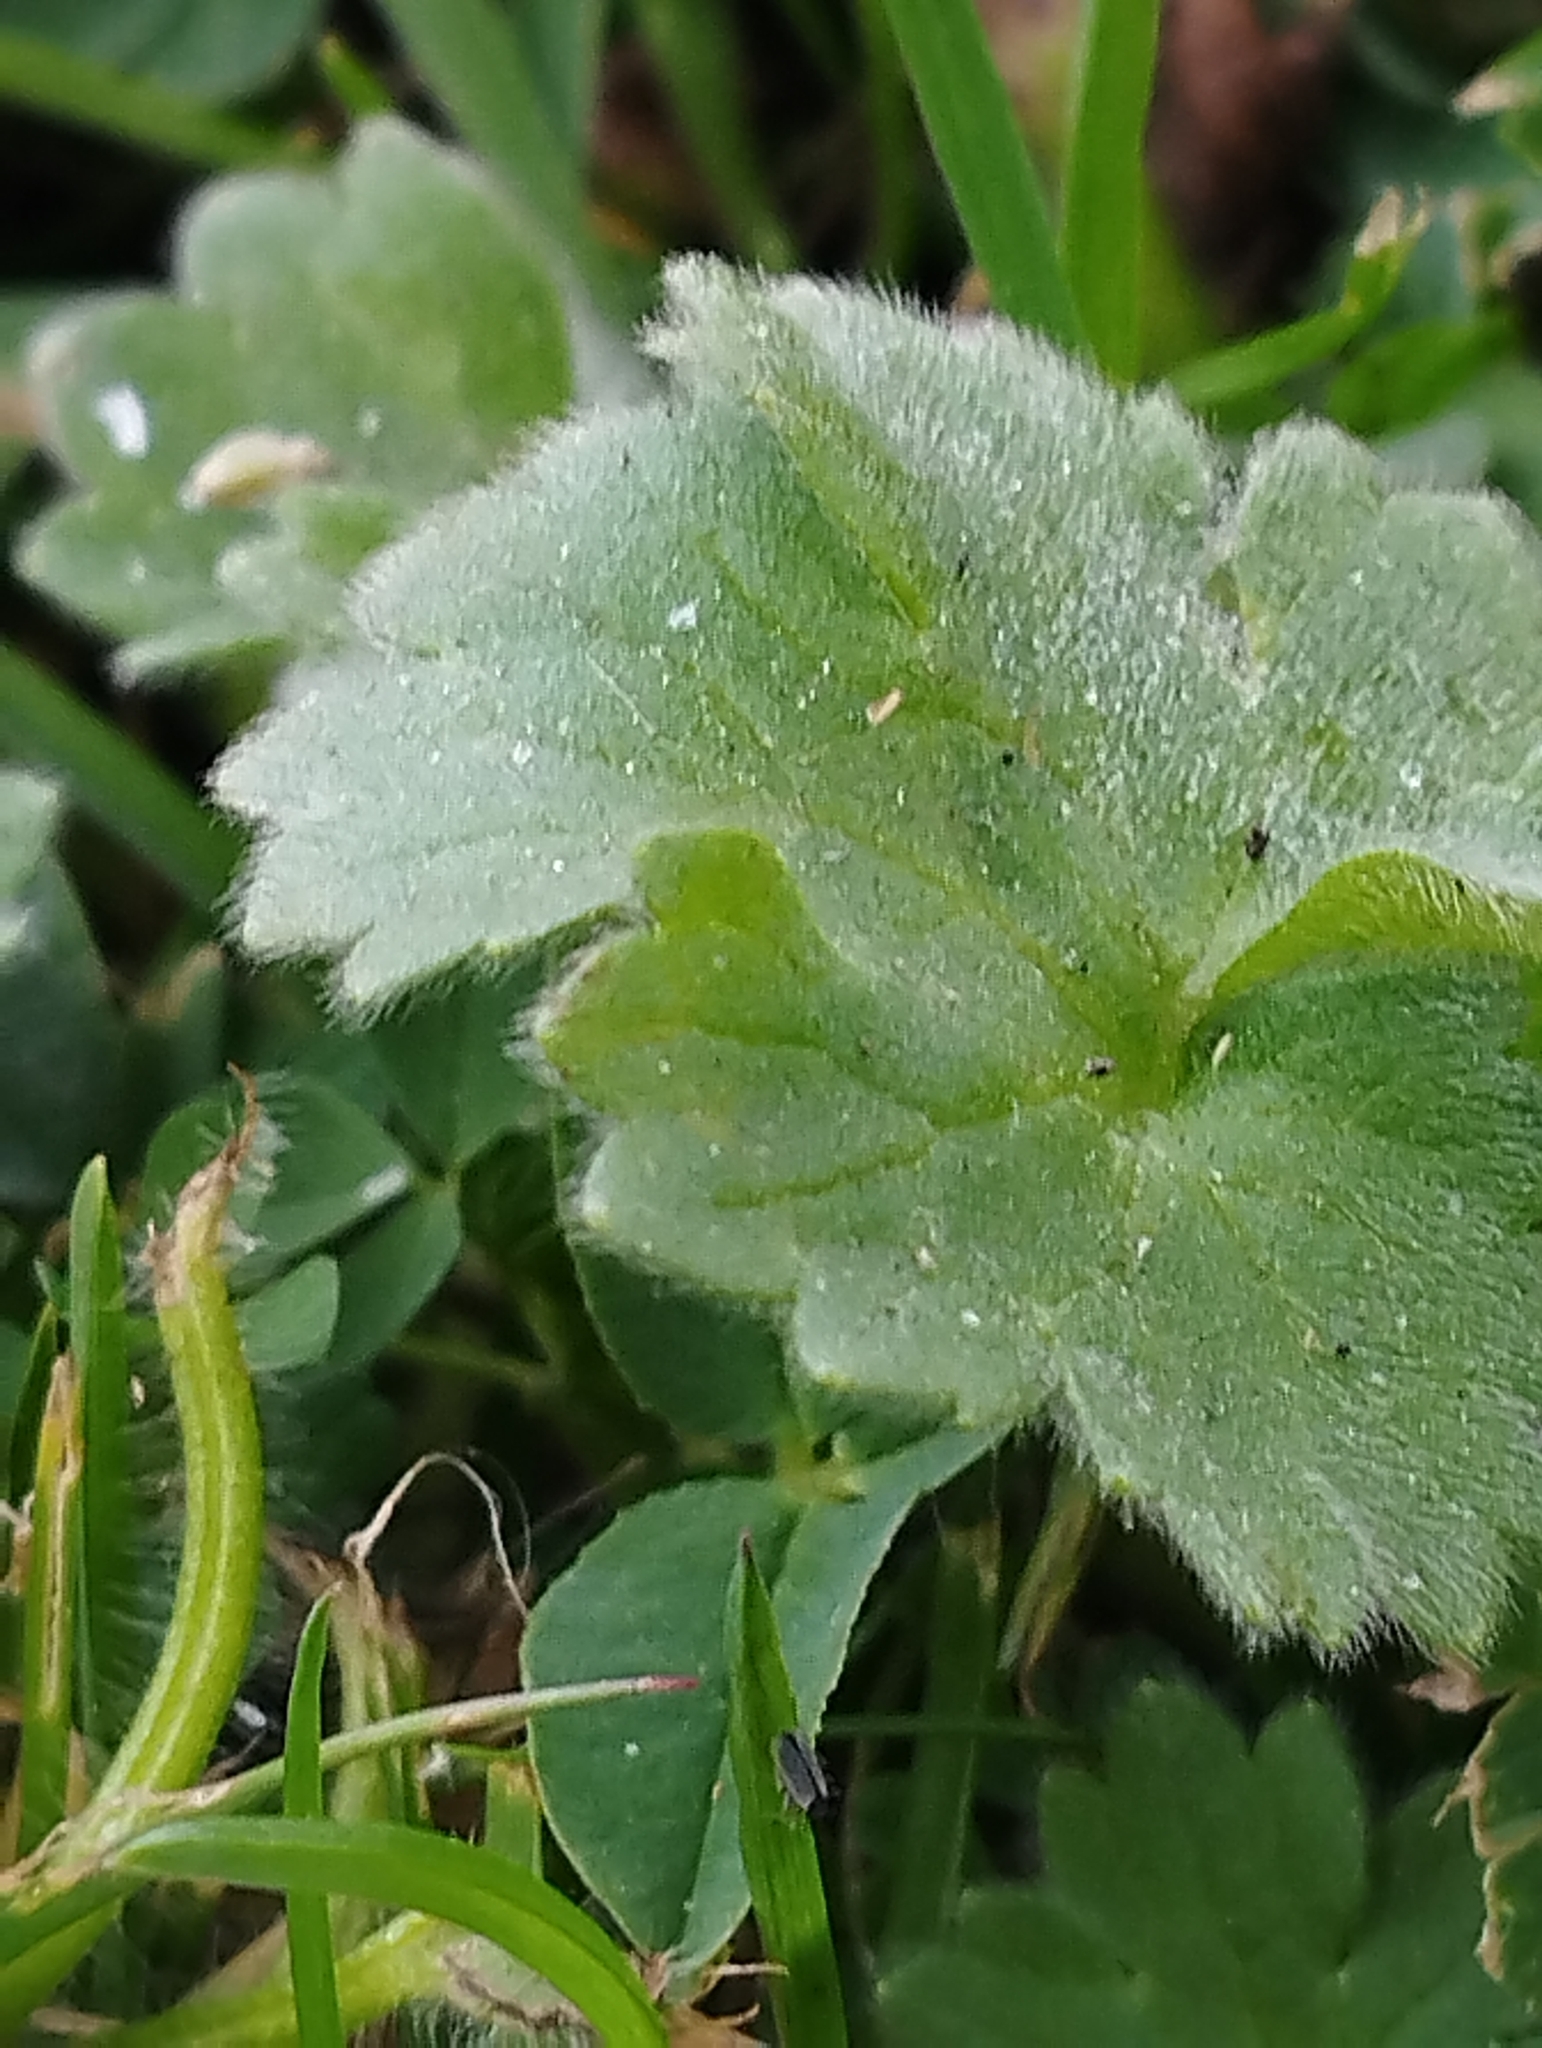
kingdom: Plantae
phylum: Tracheophyta
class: Magnoliopsida
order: Ranunculales
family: Ranunculaceae
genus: Ranunculus
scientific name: Ranunculus parviflorus
